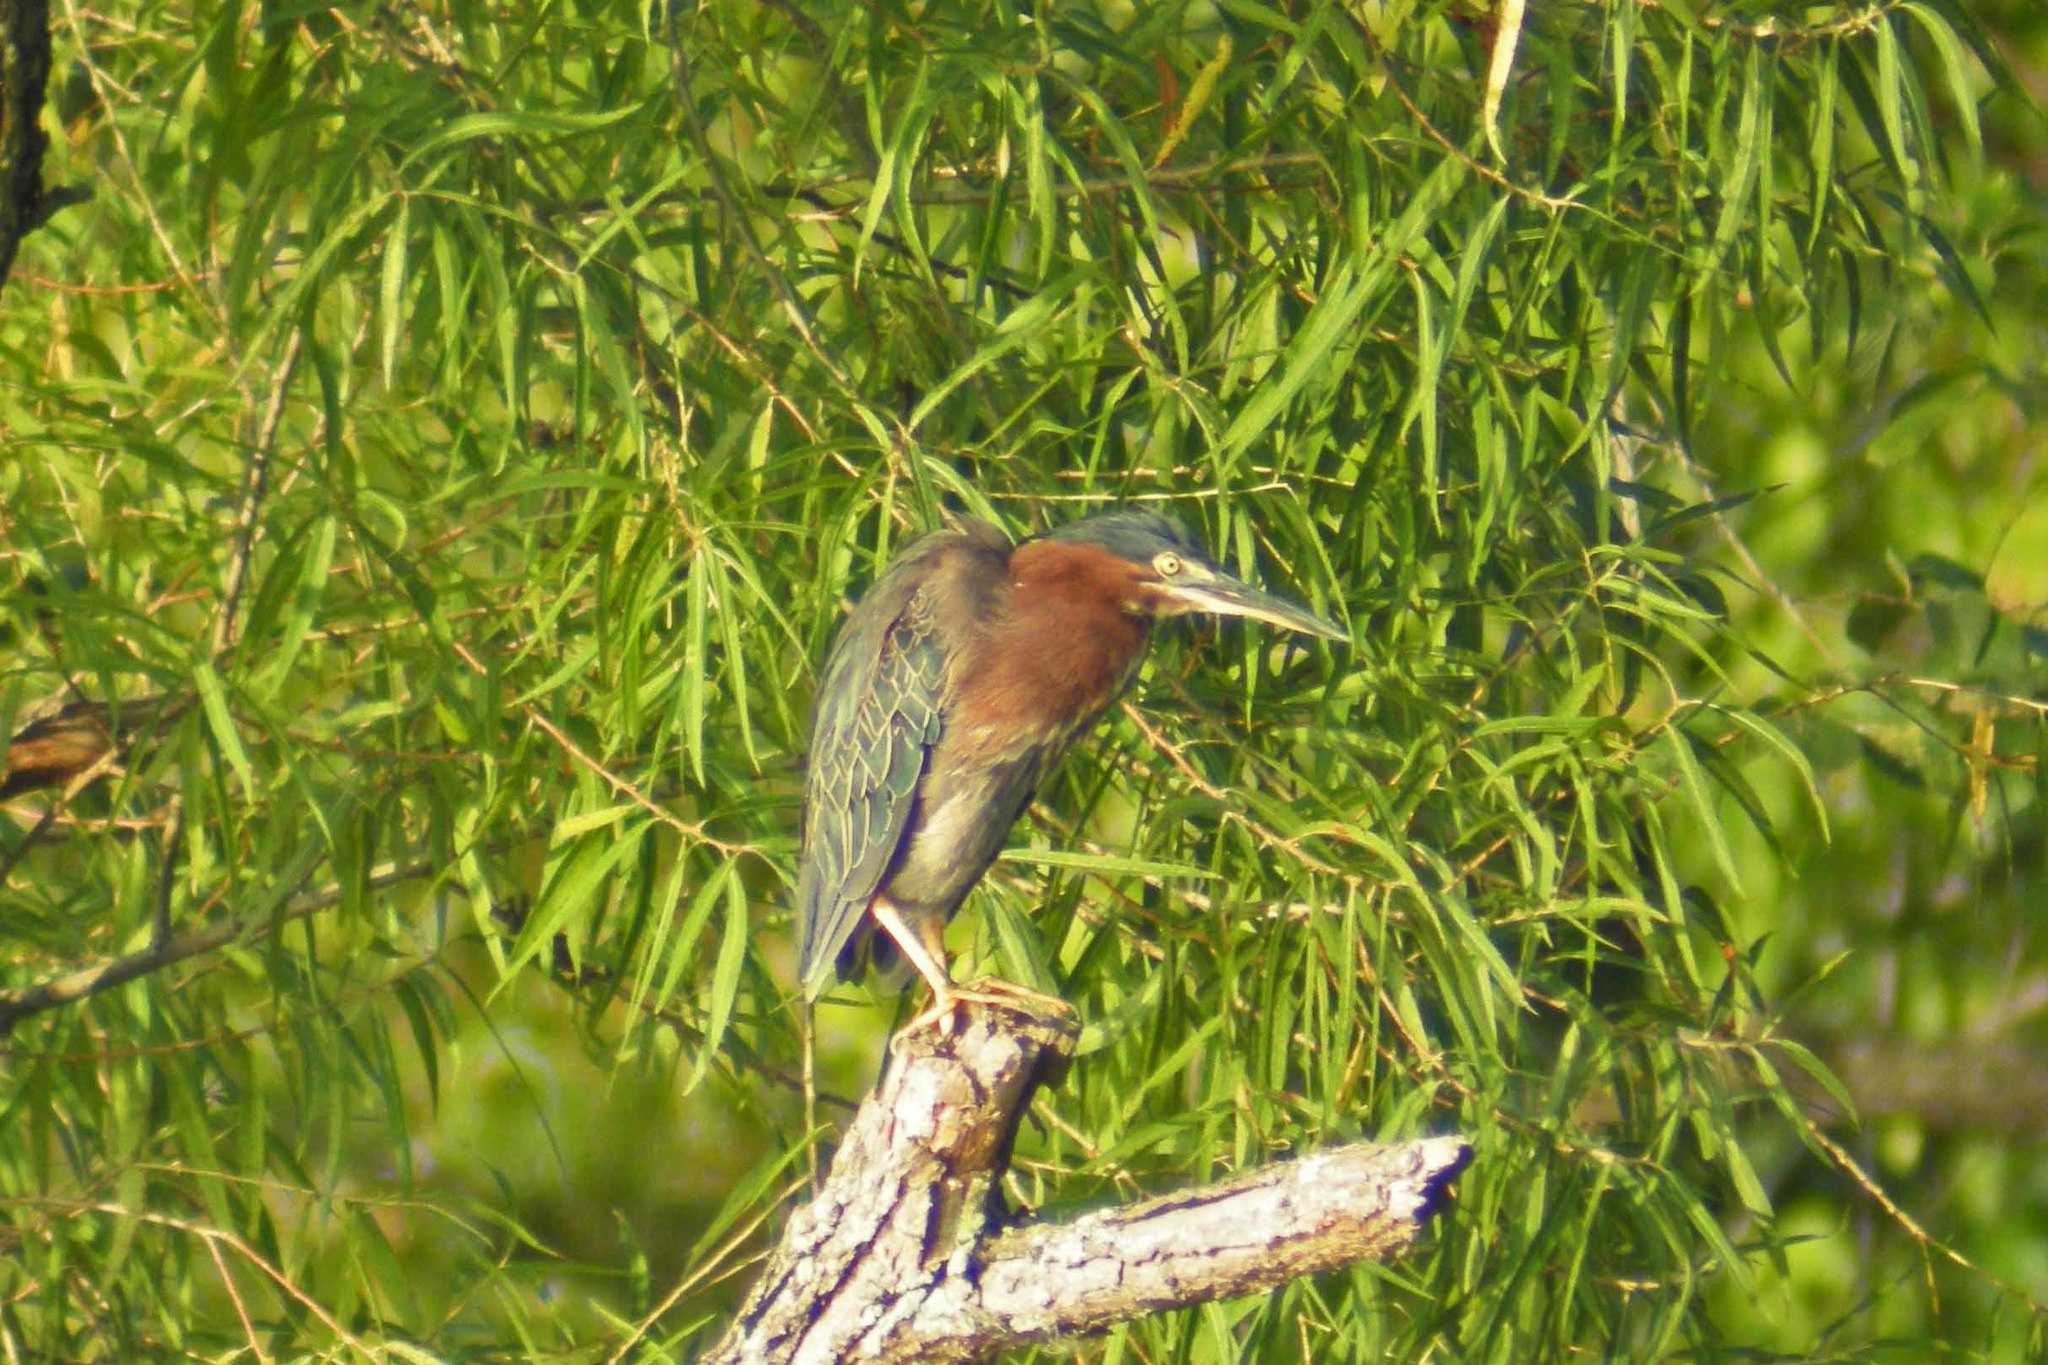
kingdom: Animalia
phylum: Chordata
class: Aves
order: Pelecaniformes
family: Ardeidae
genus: Butorides
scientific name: Butorides virescens
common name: Green heron
